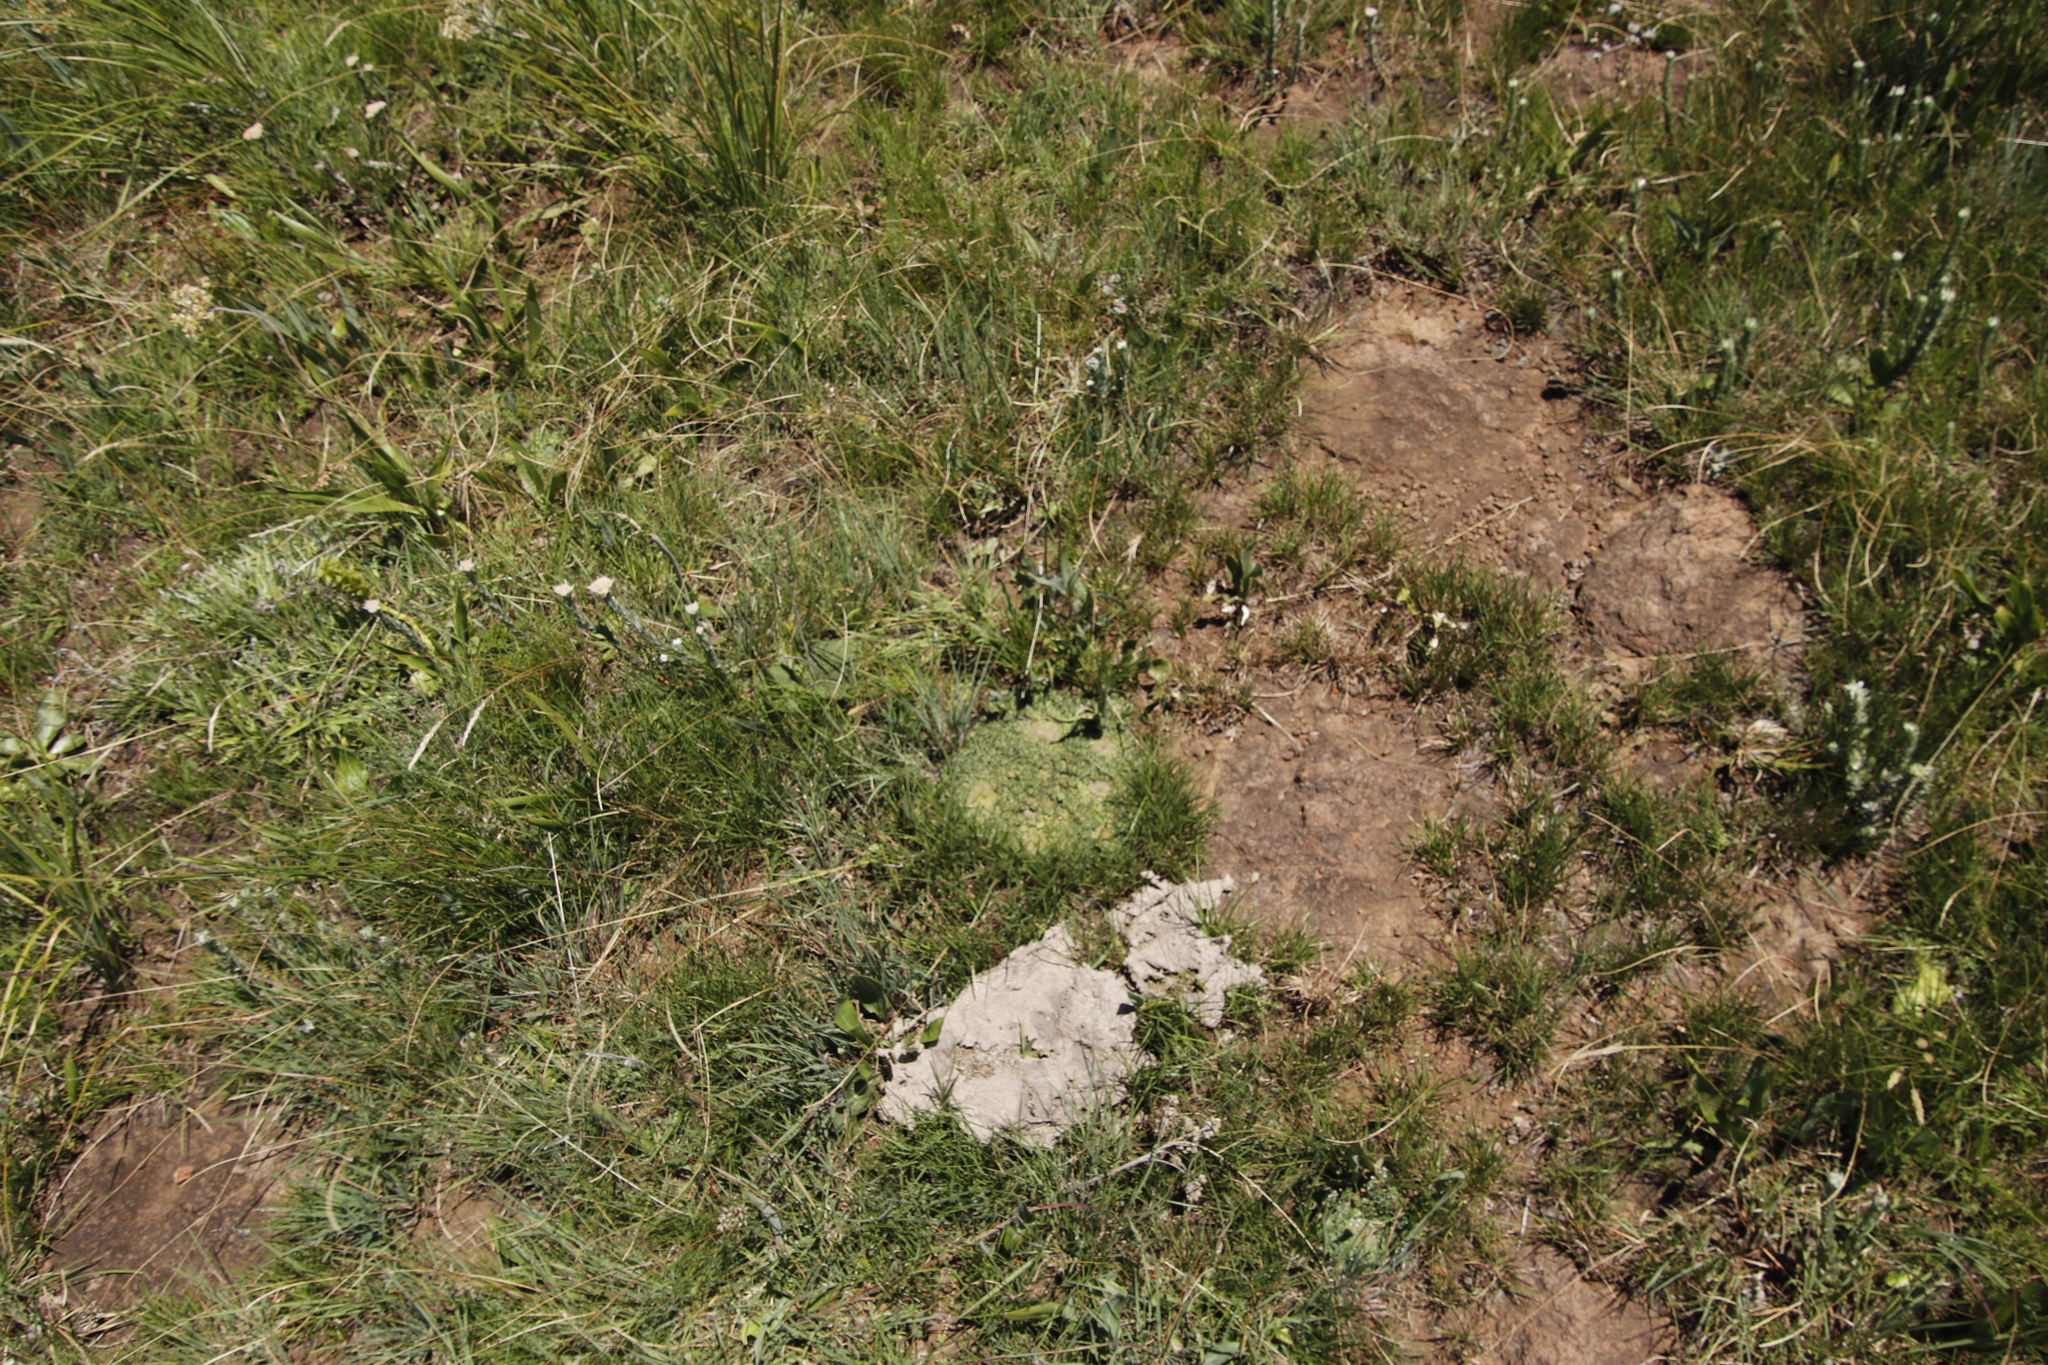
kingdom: Plantae
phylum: Tracheophyta
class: Magnoliopsida
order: Malpighiales
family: Euphorbiaceae
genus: Euphorbia
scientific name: Euphorbia flanaganii
